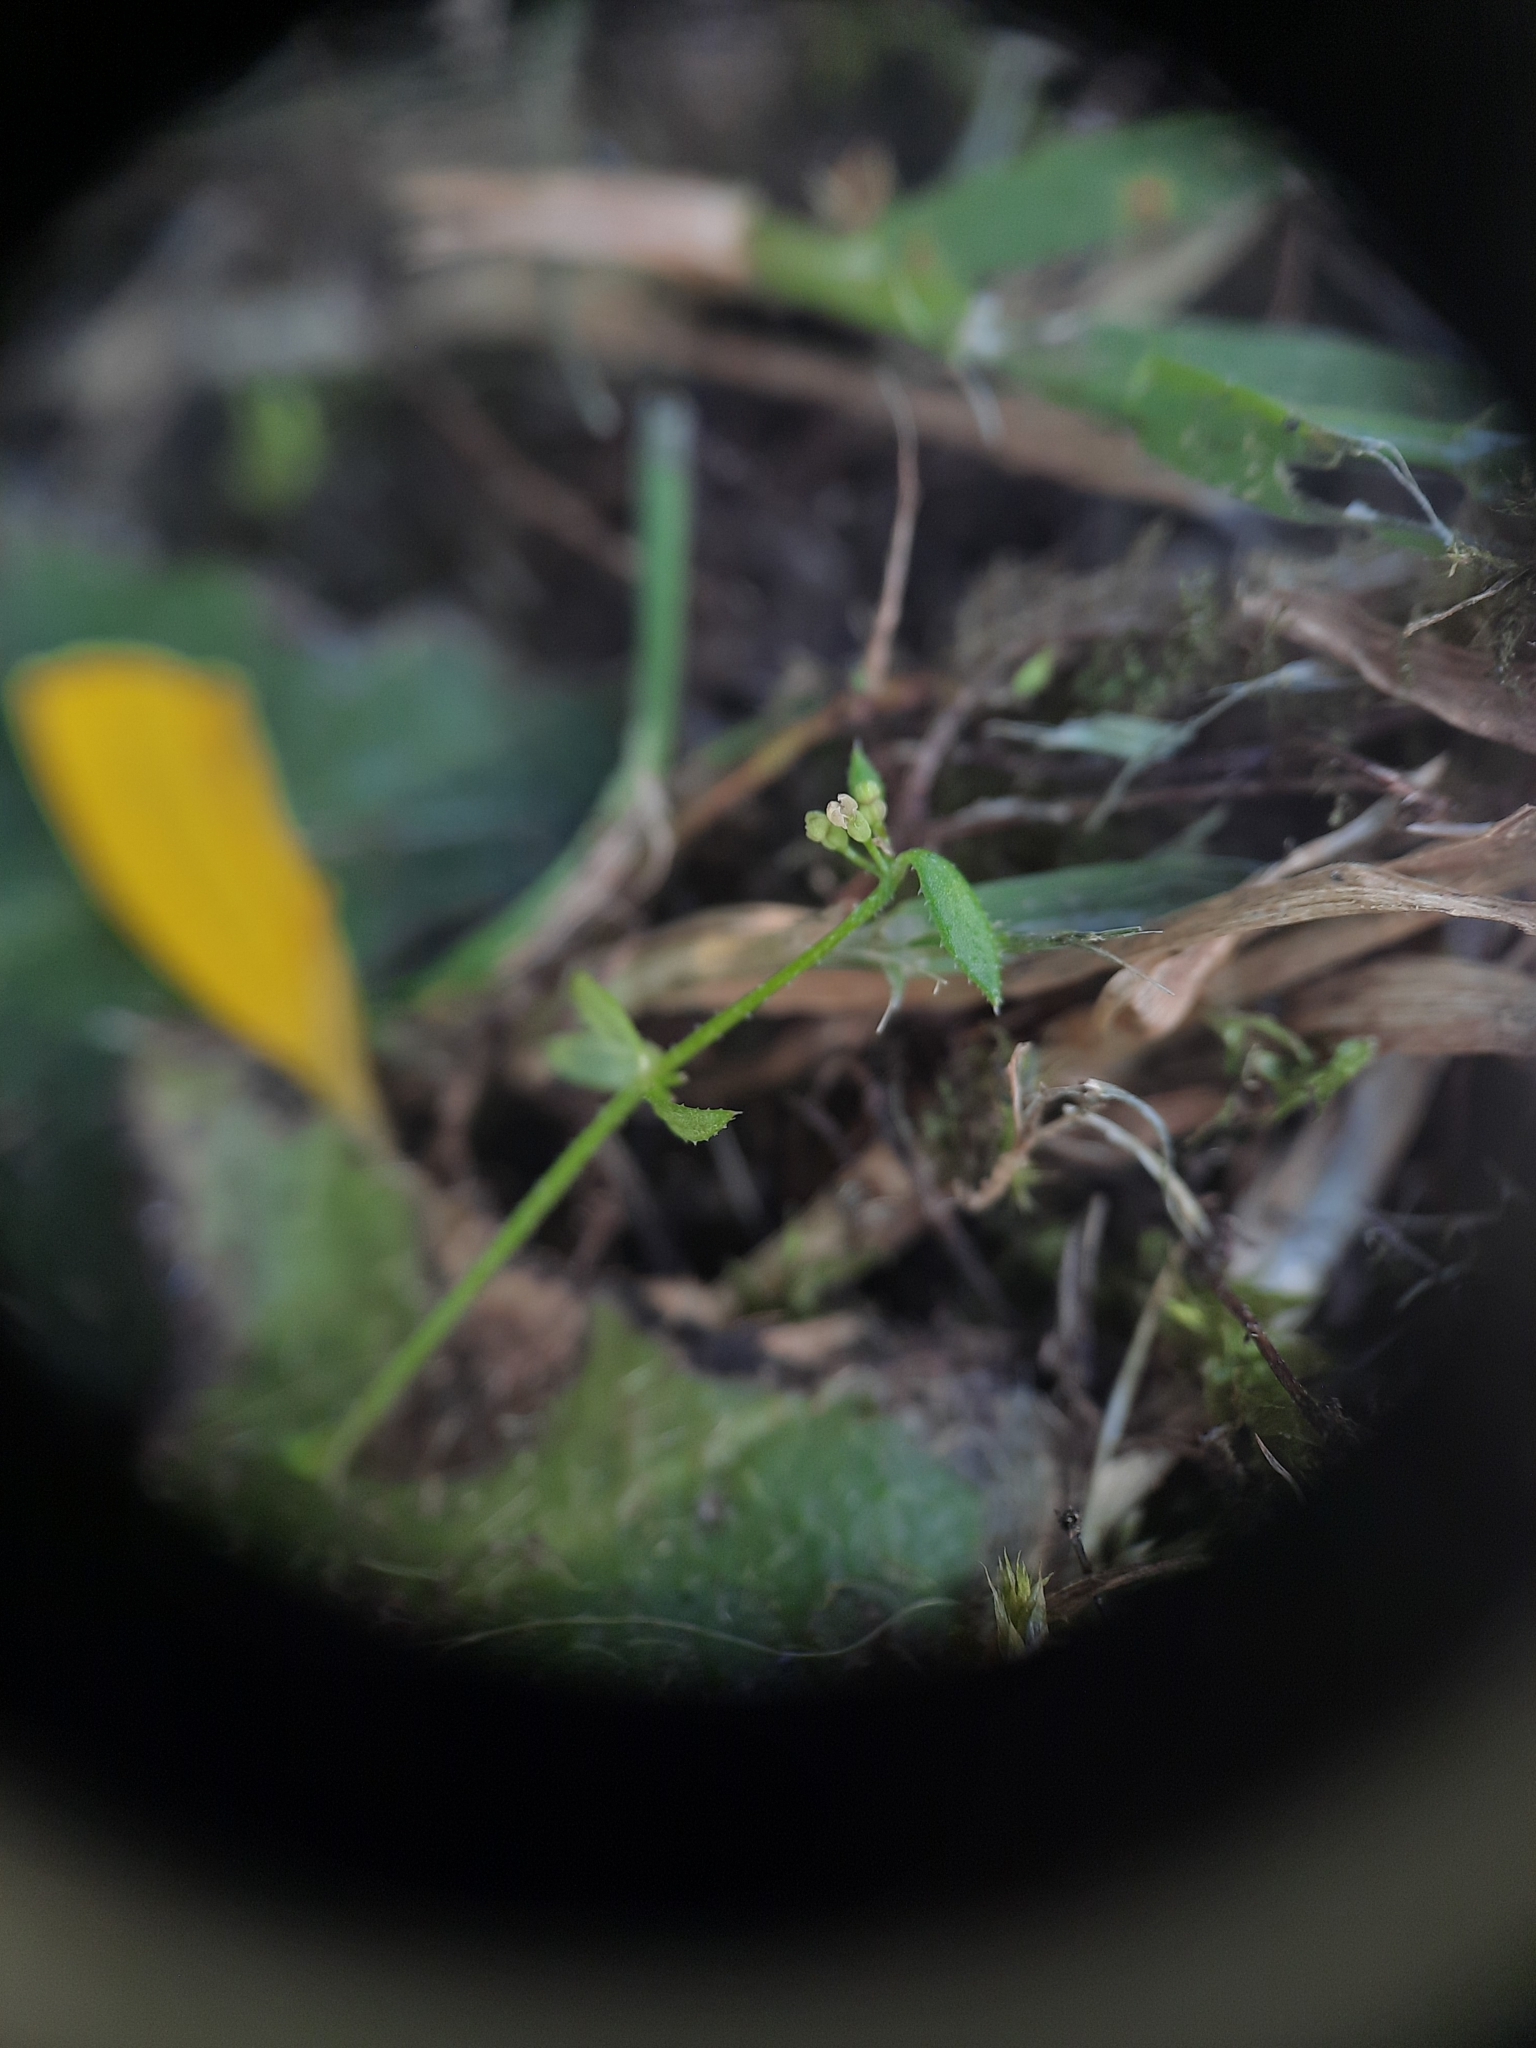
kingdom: Plantae
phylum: Tracheophyta
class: Magnoliopsida
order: Gentianales
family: Rubiaceae
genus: Galium
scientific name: Galium divaricatum
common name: Lamarck's bedstraw
